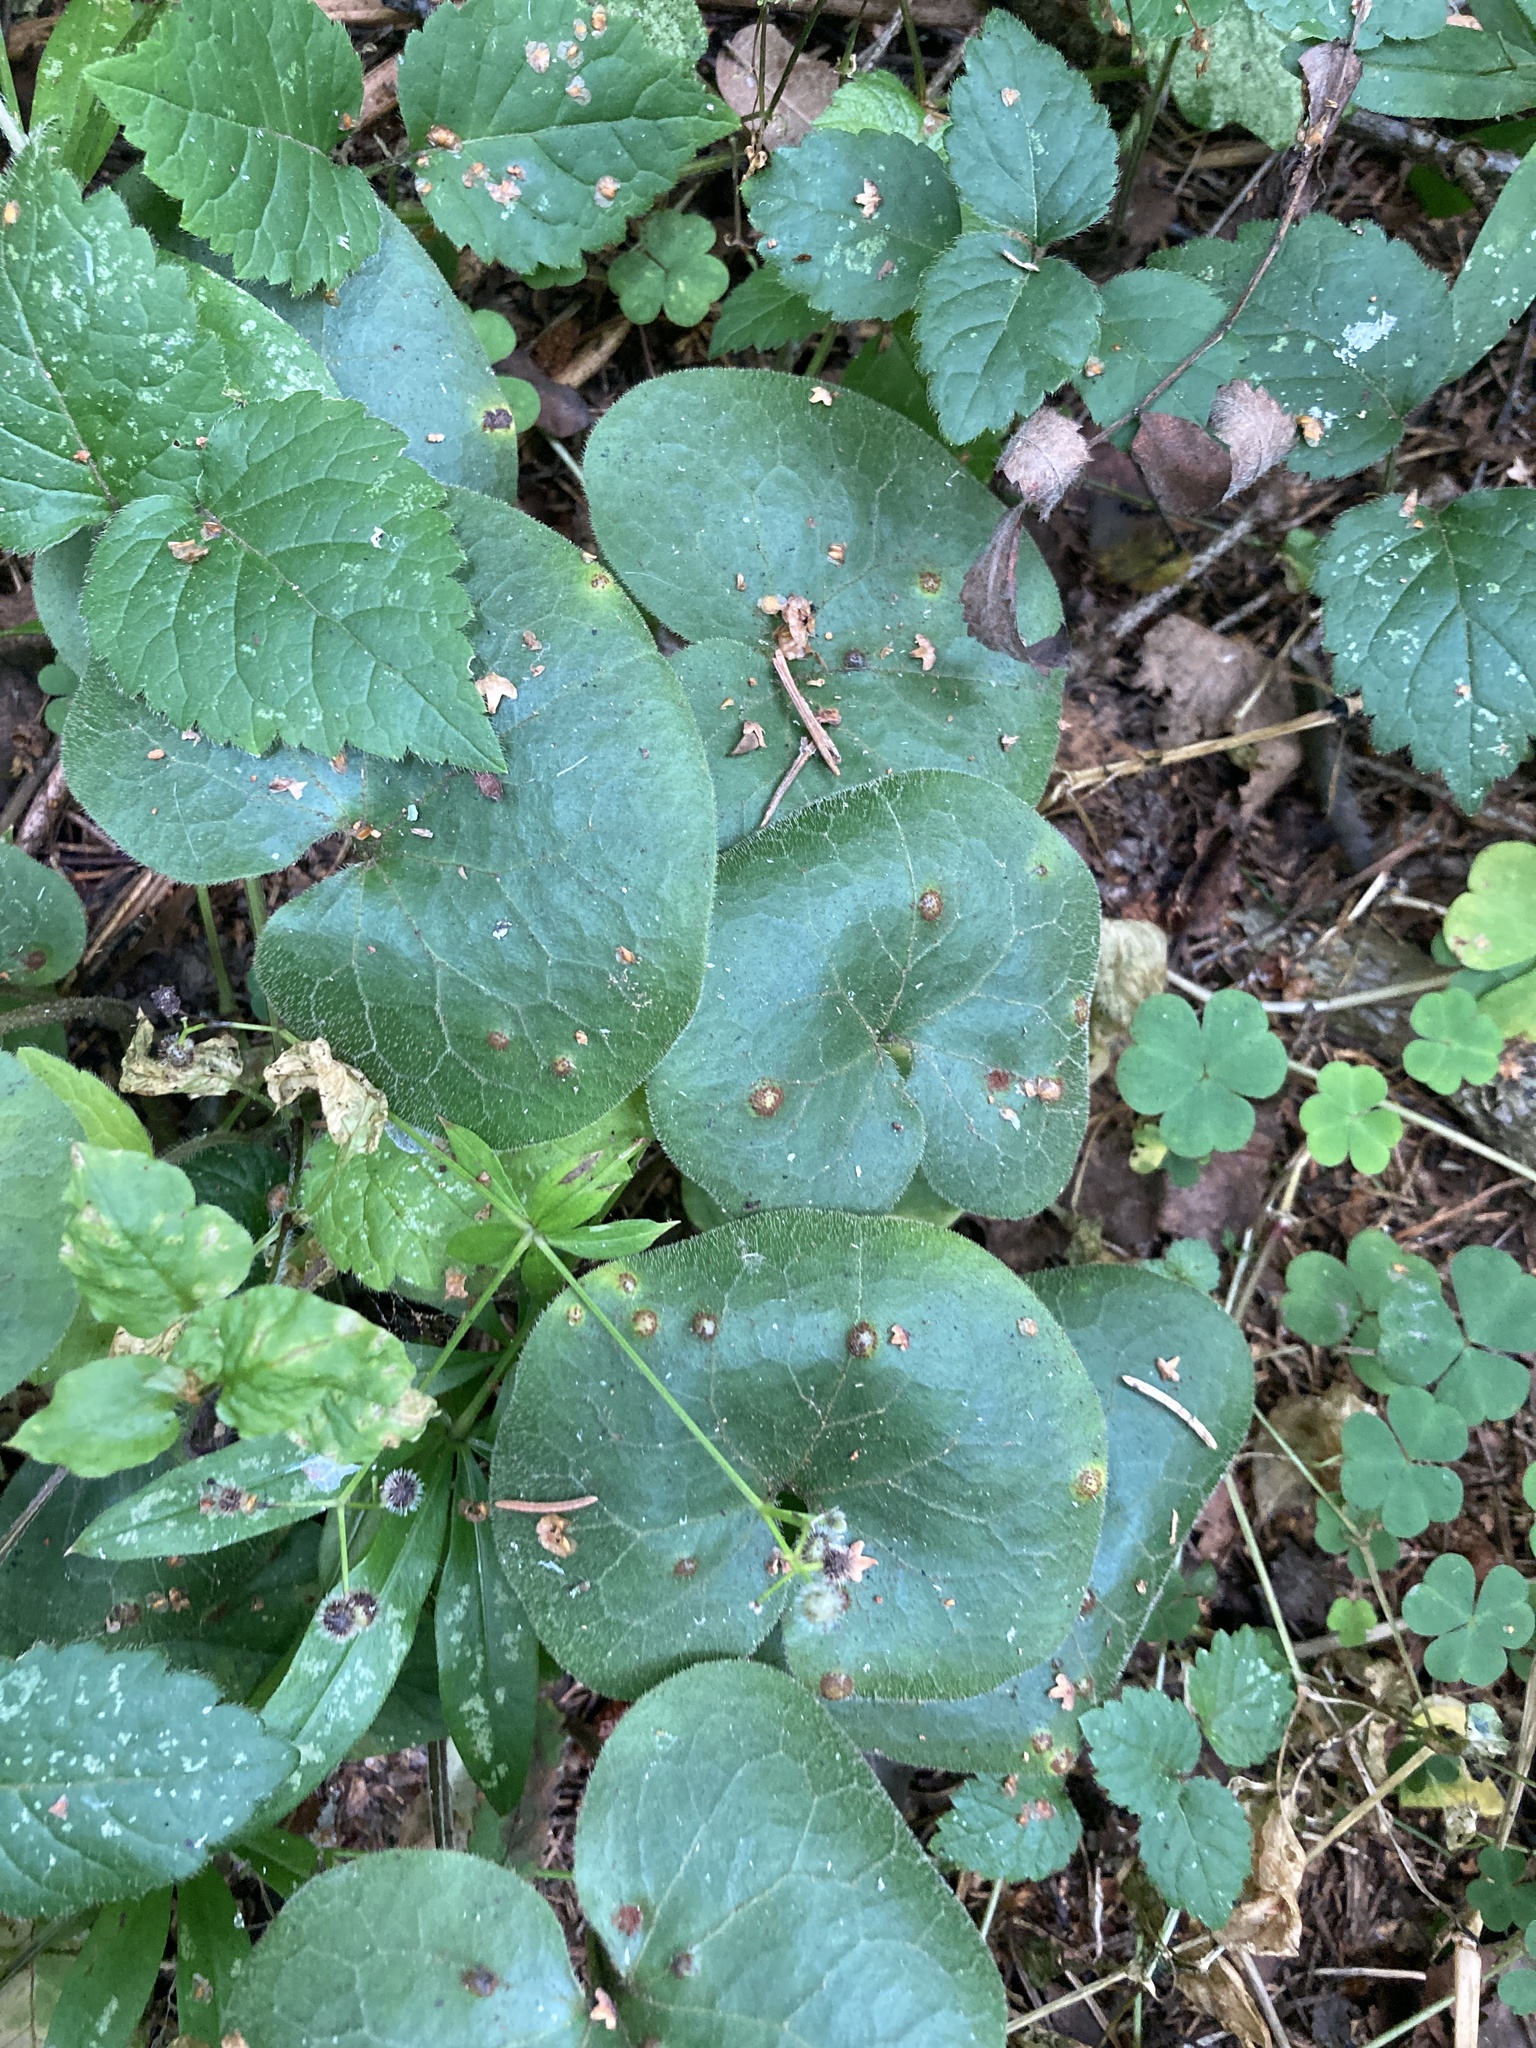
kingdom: Plantae
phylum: Tracheophyta
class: Magnoliopsida
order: Piperales
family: Aristolochiaceae
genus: Asarum
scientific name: Asarum europaeum
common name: Asarabacca
